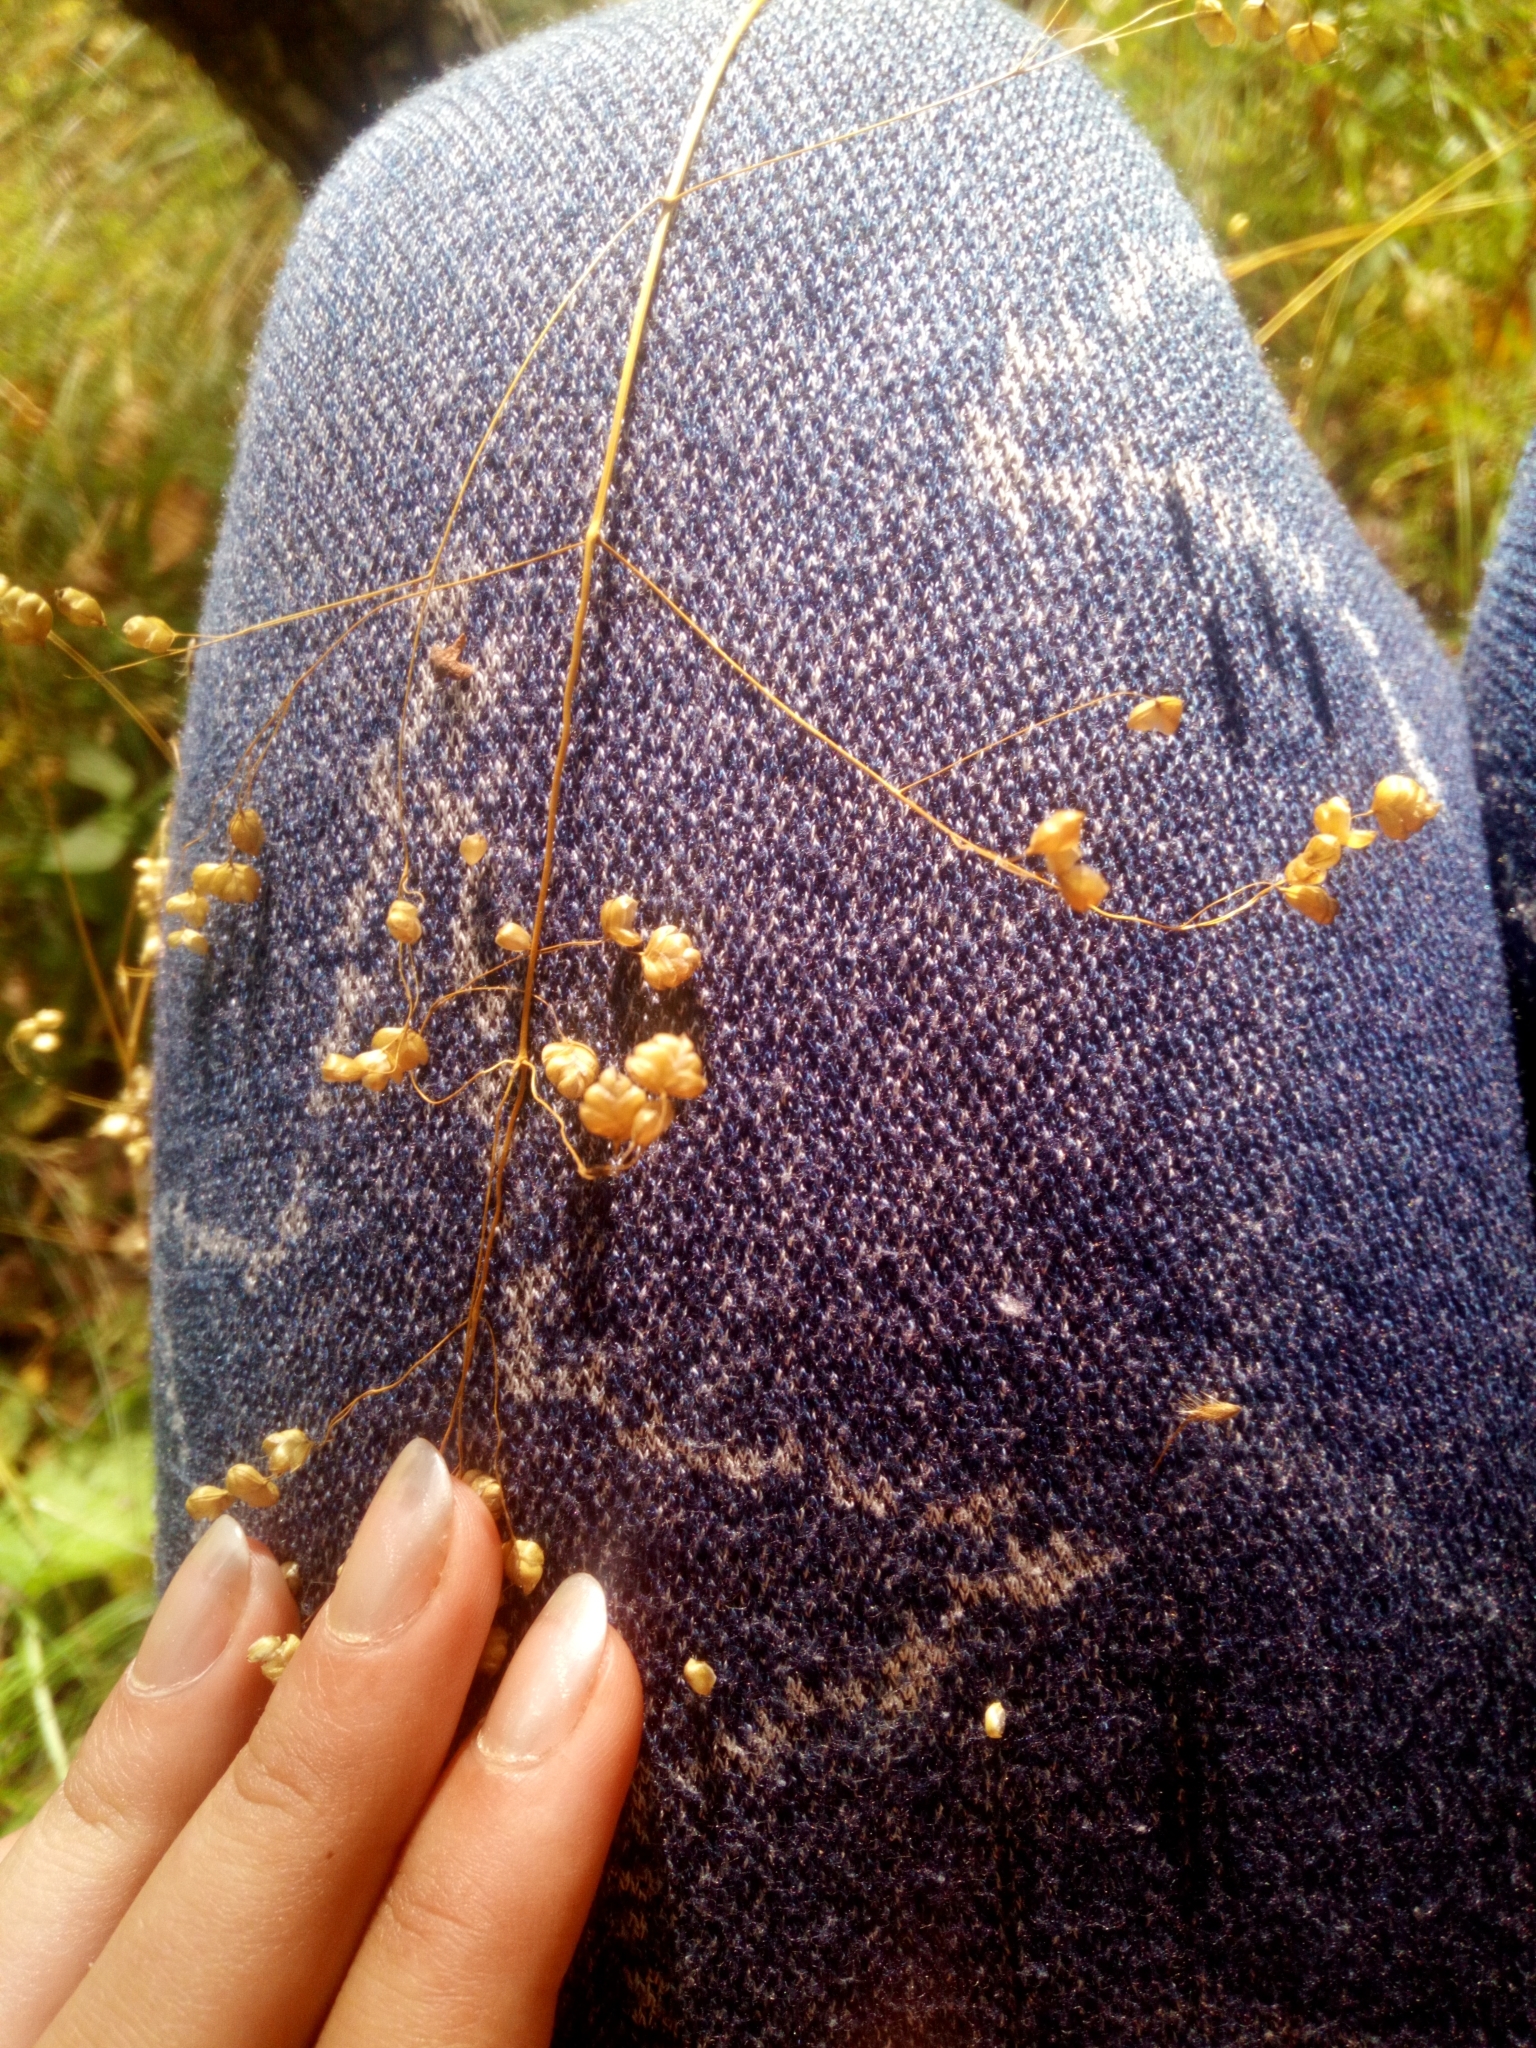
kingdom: Plantae
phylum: Tracheophyta
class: Liliopsida
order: Poales
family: Poaceae
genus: Briza
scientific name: Briza media
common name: Quaking grass
